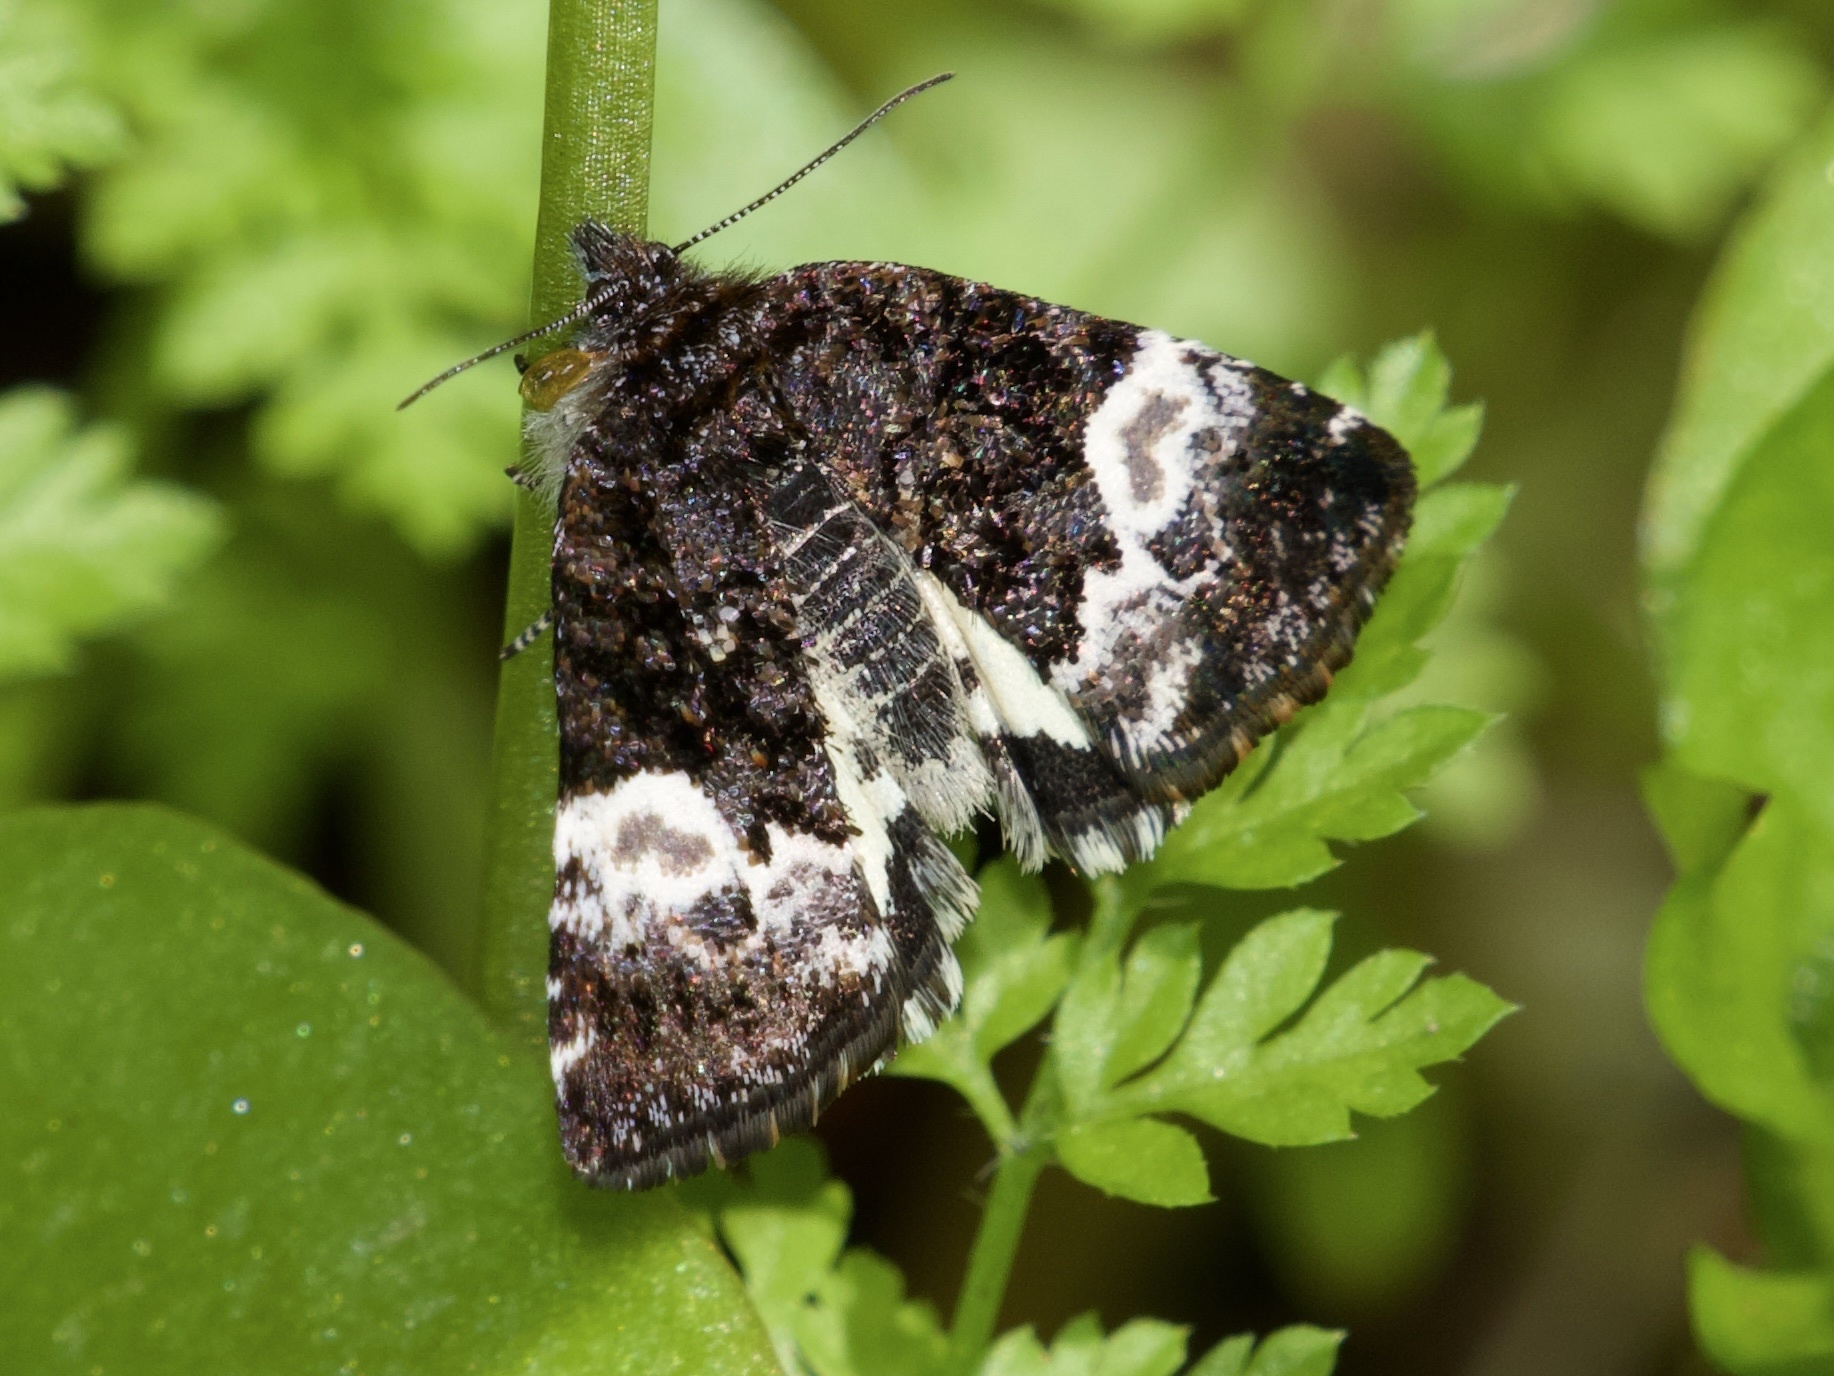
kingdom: Animalia
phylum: Arthropoda
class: Insecta
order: Lepidoptera
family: Noctuidae
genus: Annaphila
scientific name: Annaphila diva
